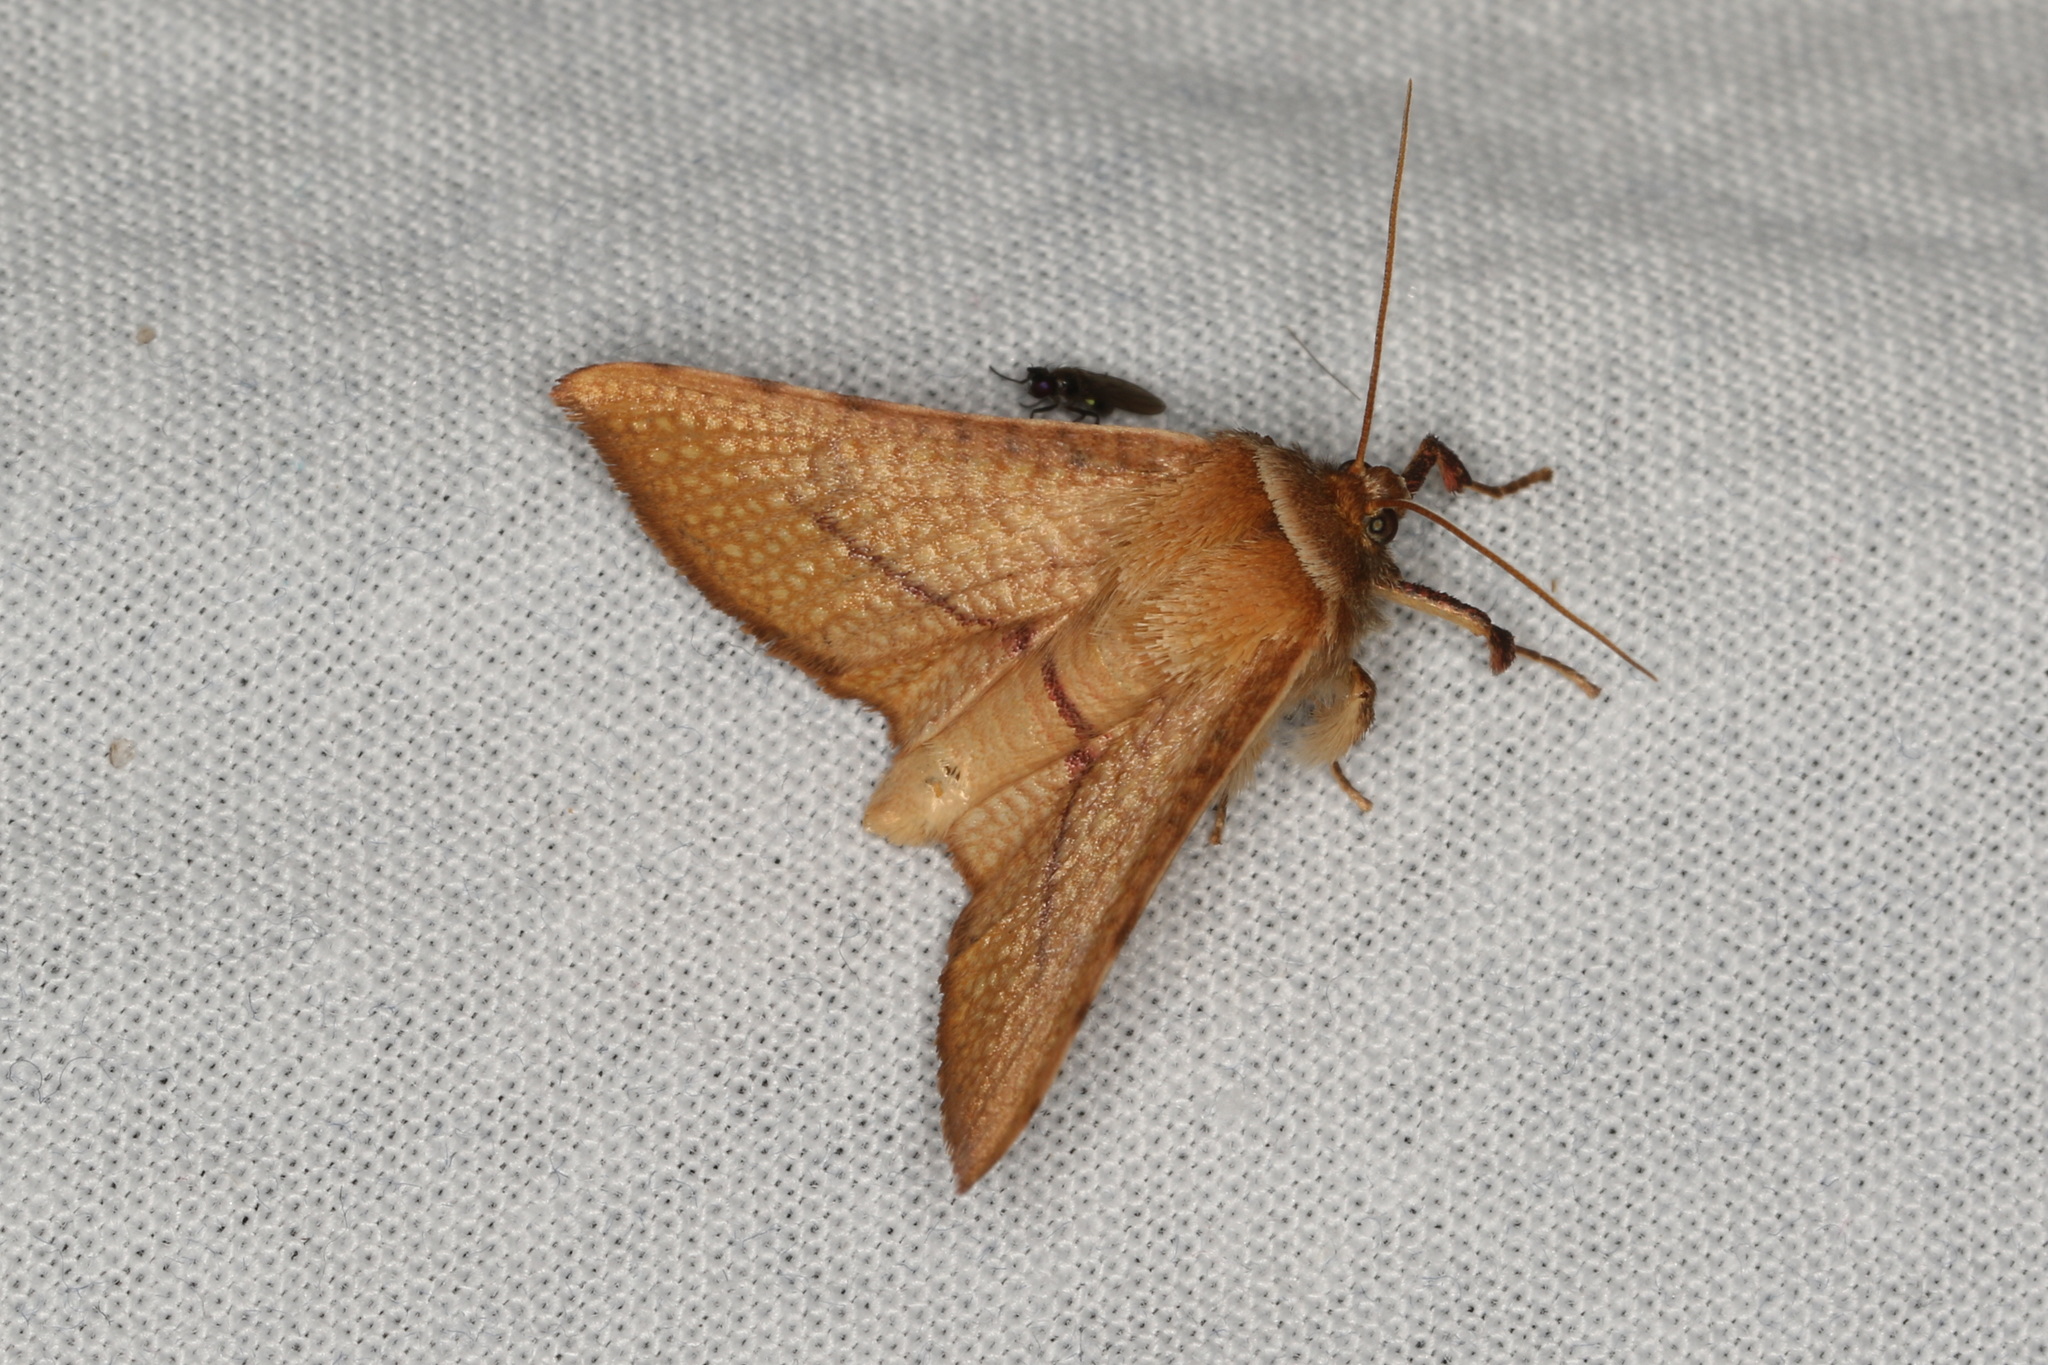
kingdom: Animalia
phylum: Arthropoda
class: Insecta
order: Lepidoptera
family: Thyrididae
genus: Aglaopus
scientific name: Aglaopus pyrrhata
